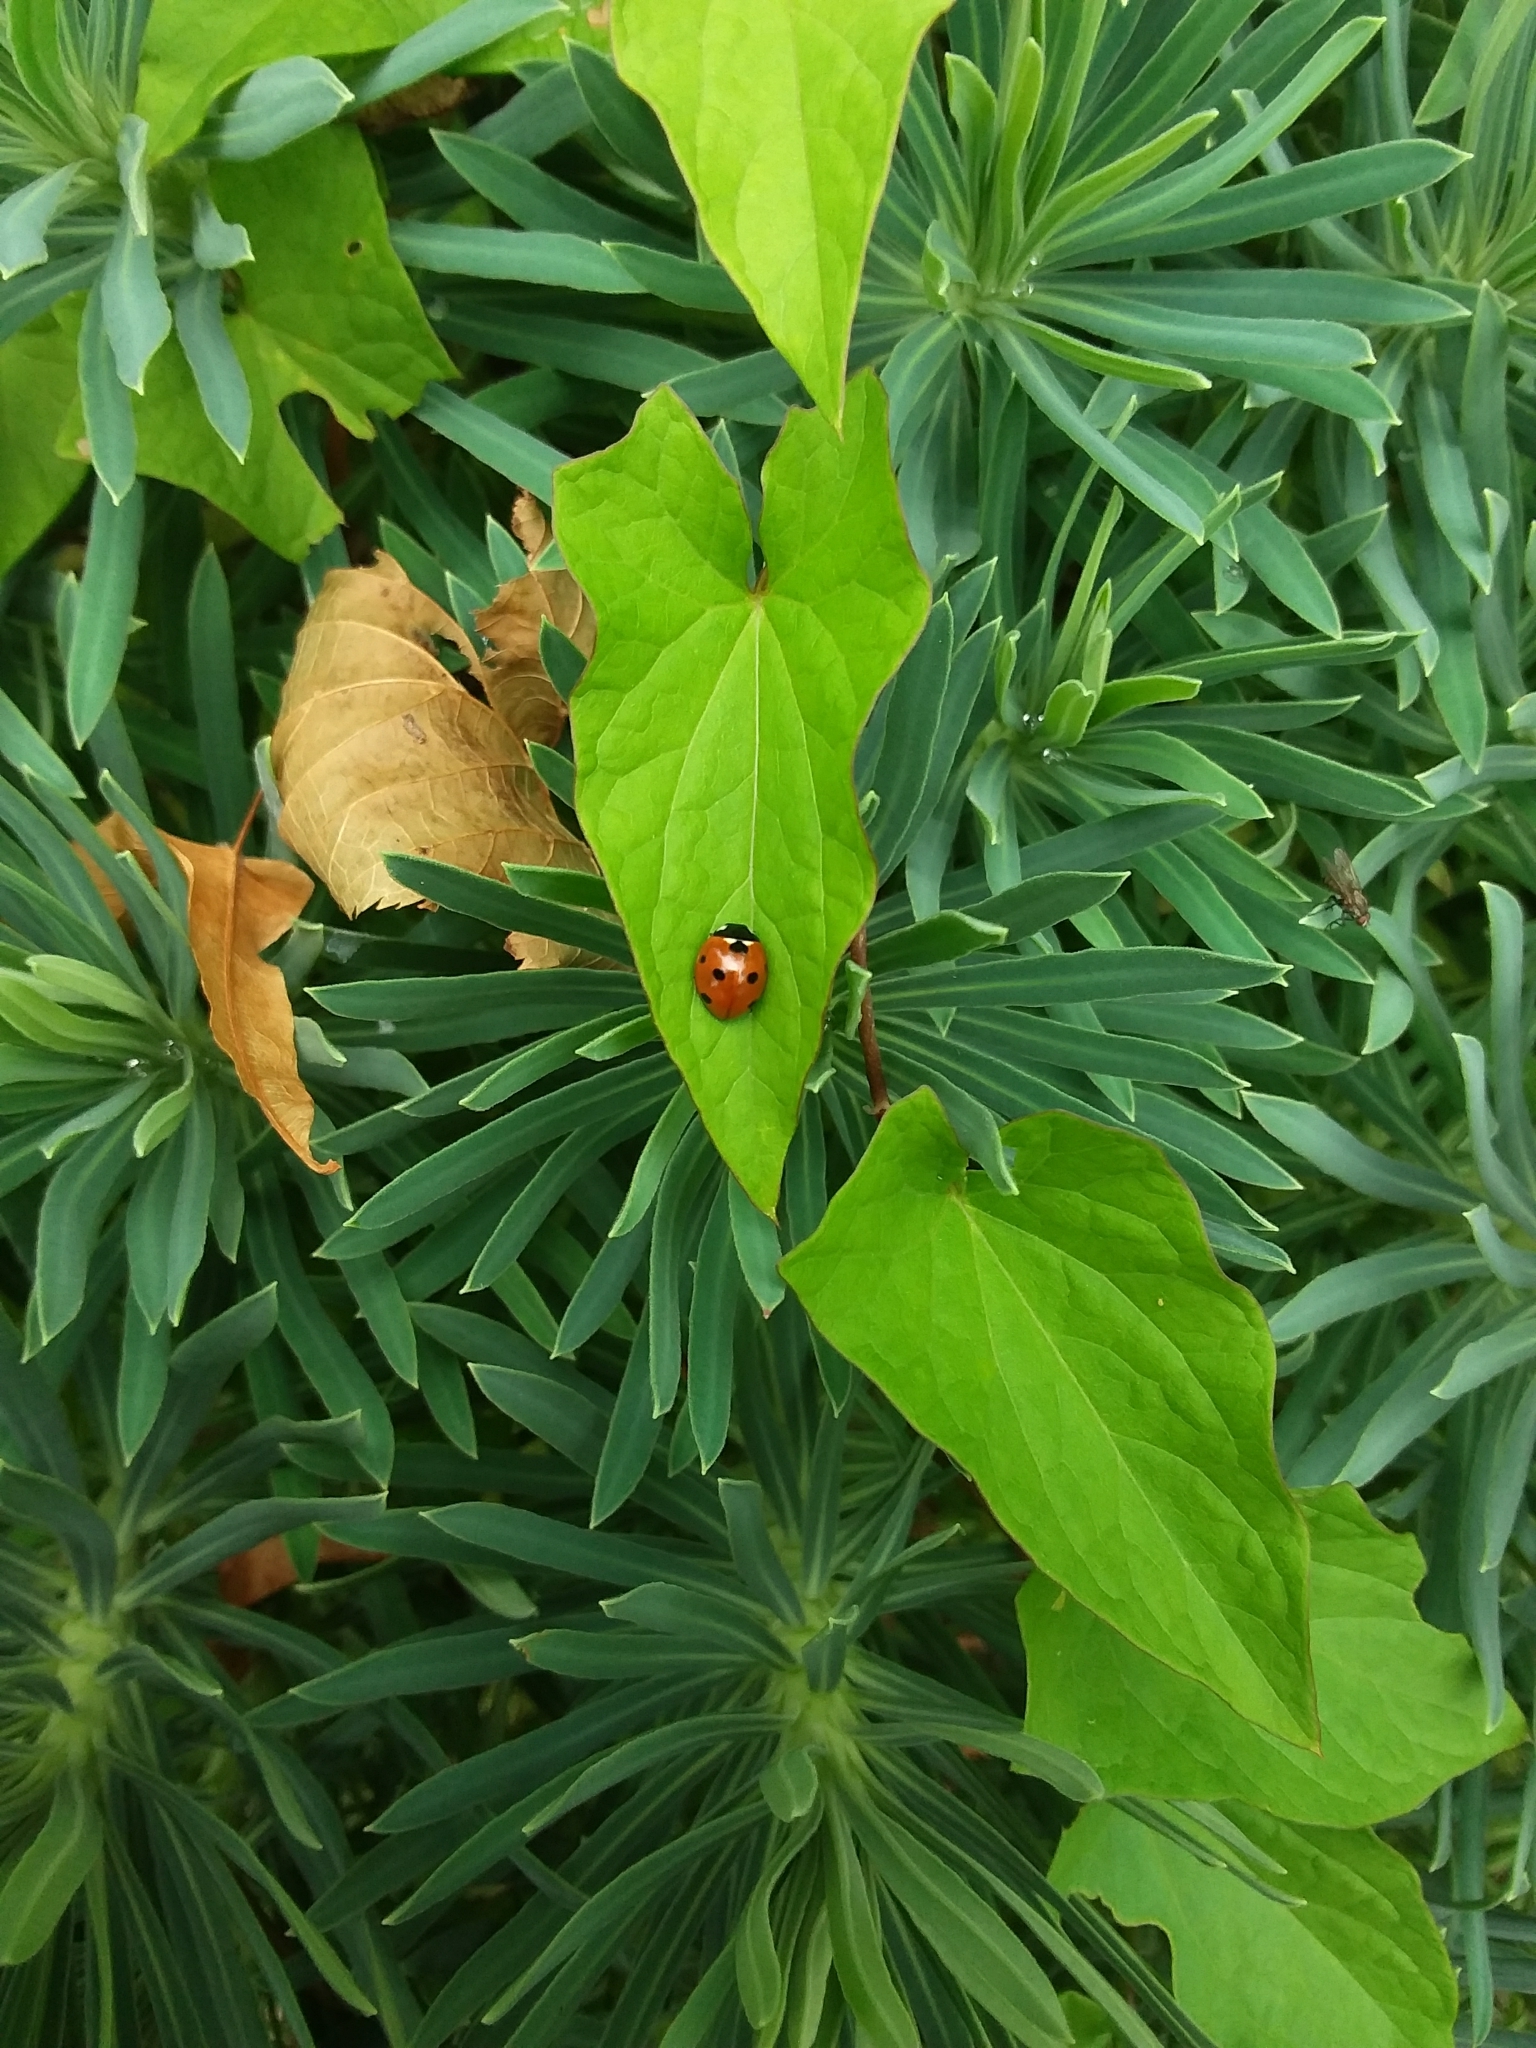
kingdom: Animalia
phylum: Arthropoda
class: Insecta
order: Coleoptera
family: Coccinellidae
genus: Coccinella
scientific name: Coccinella septempunctata
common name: Sevenspotted lady beetle
